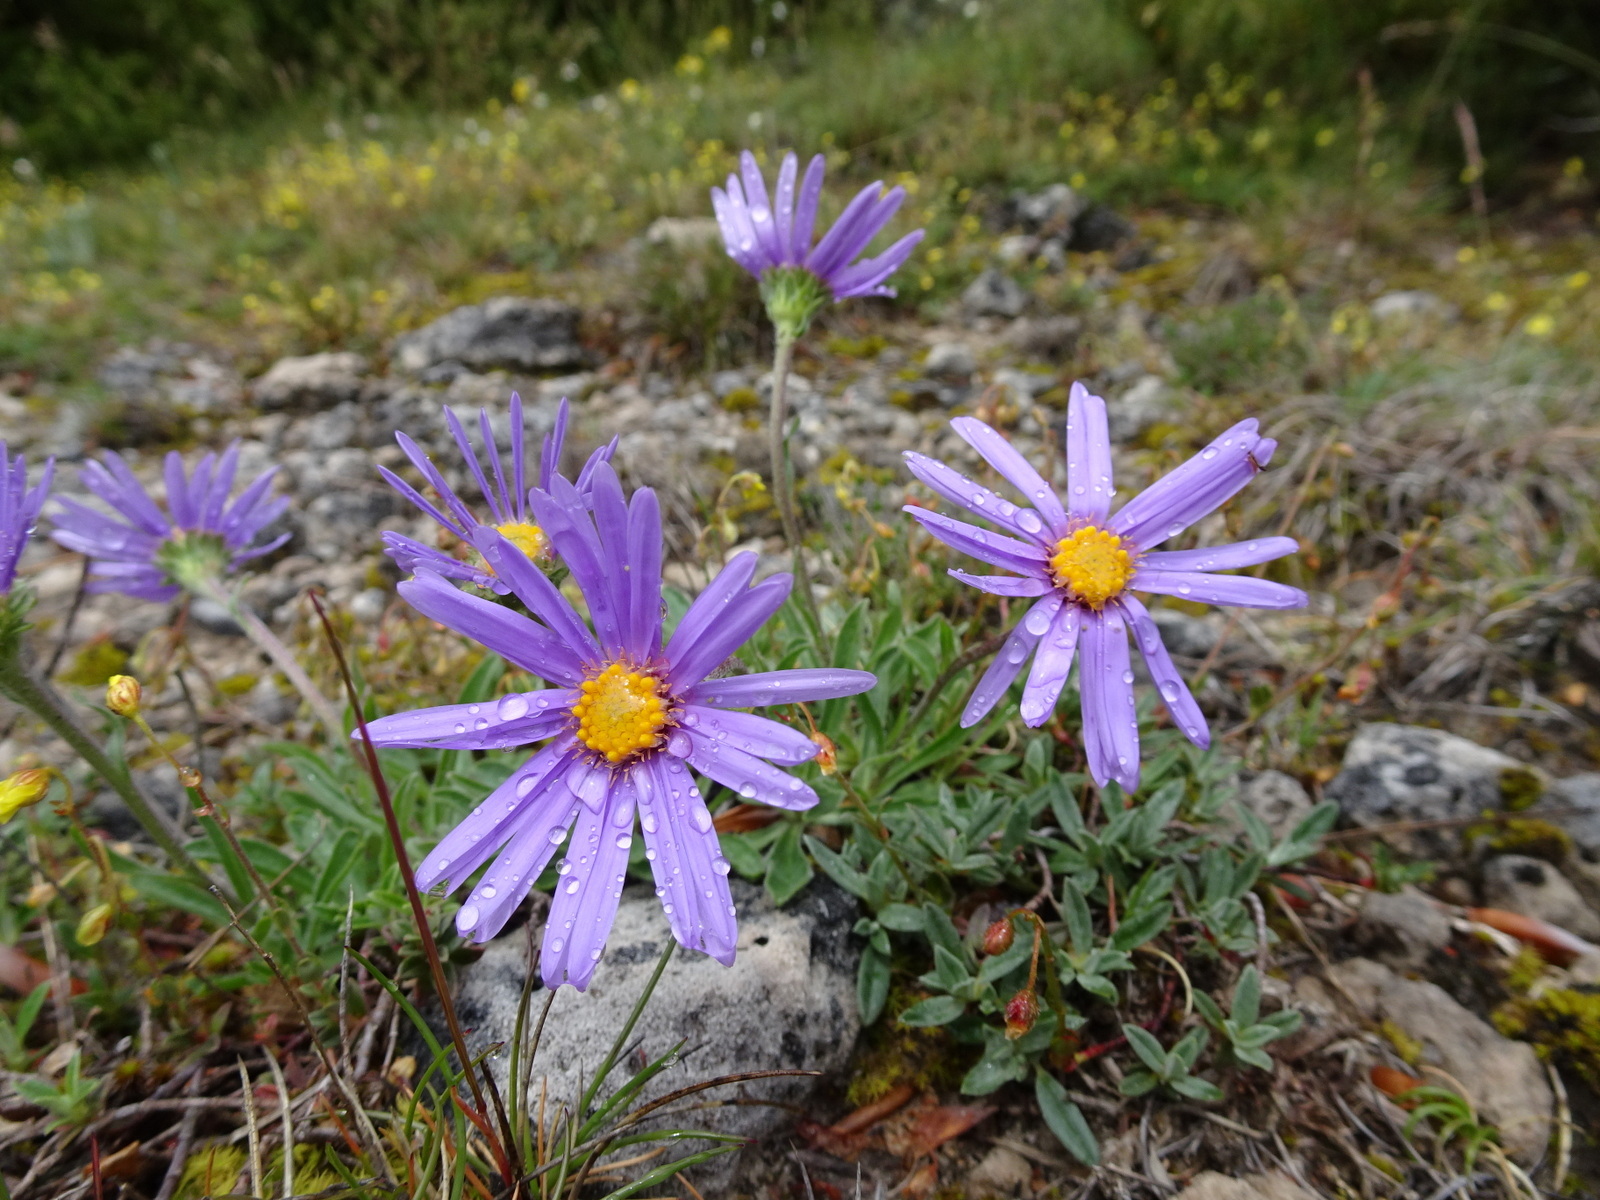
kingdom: Plantae
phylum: Tracheophyta
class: Magnoliopsida
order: Asterales
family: Asteraceae
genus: Aster
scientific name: Aster alpinus
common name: Alpine aster
